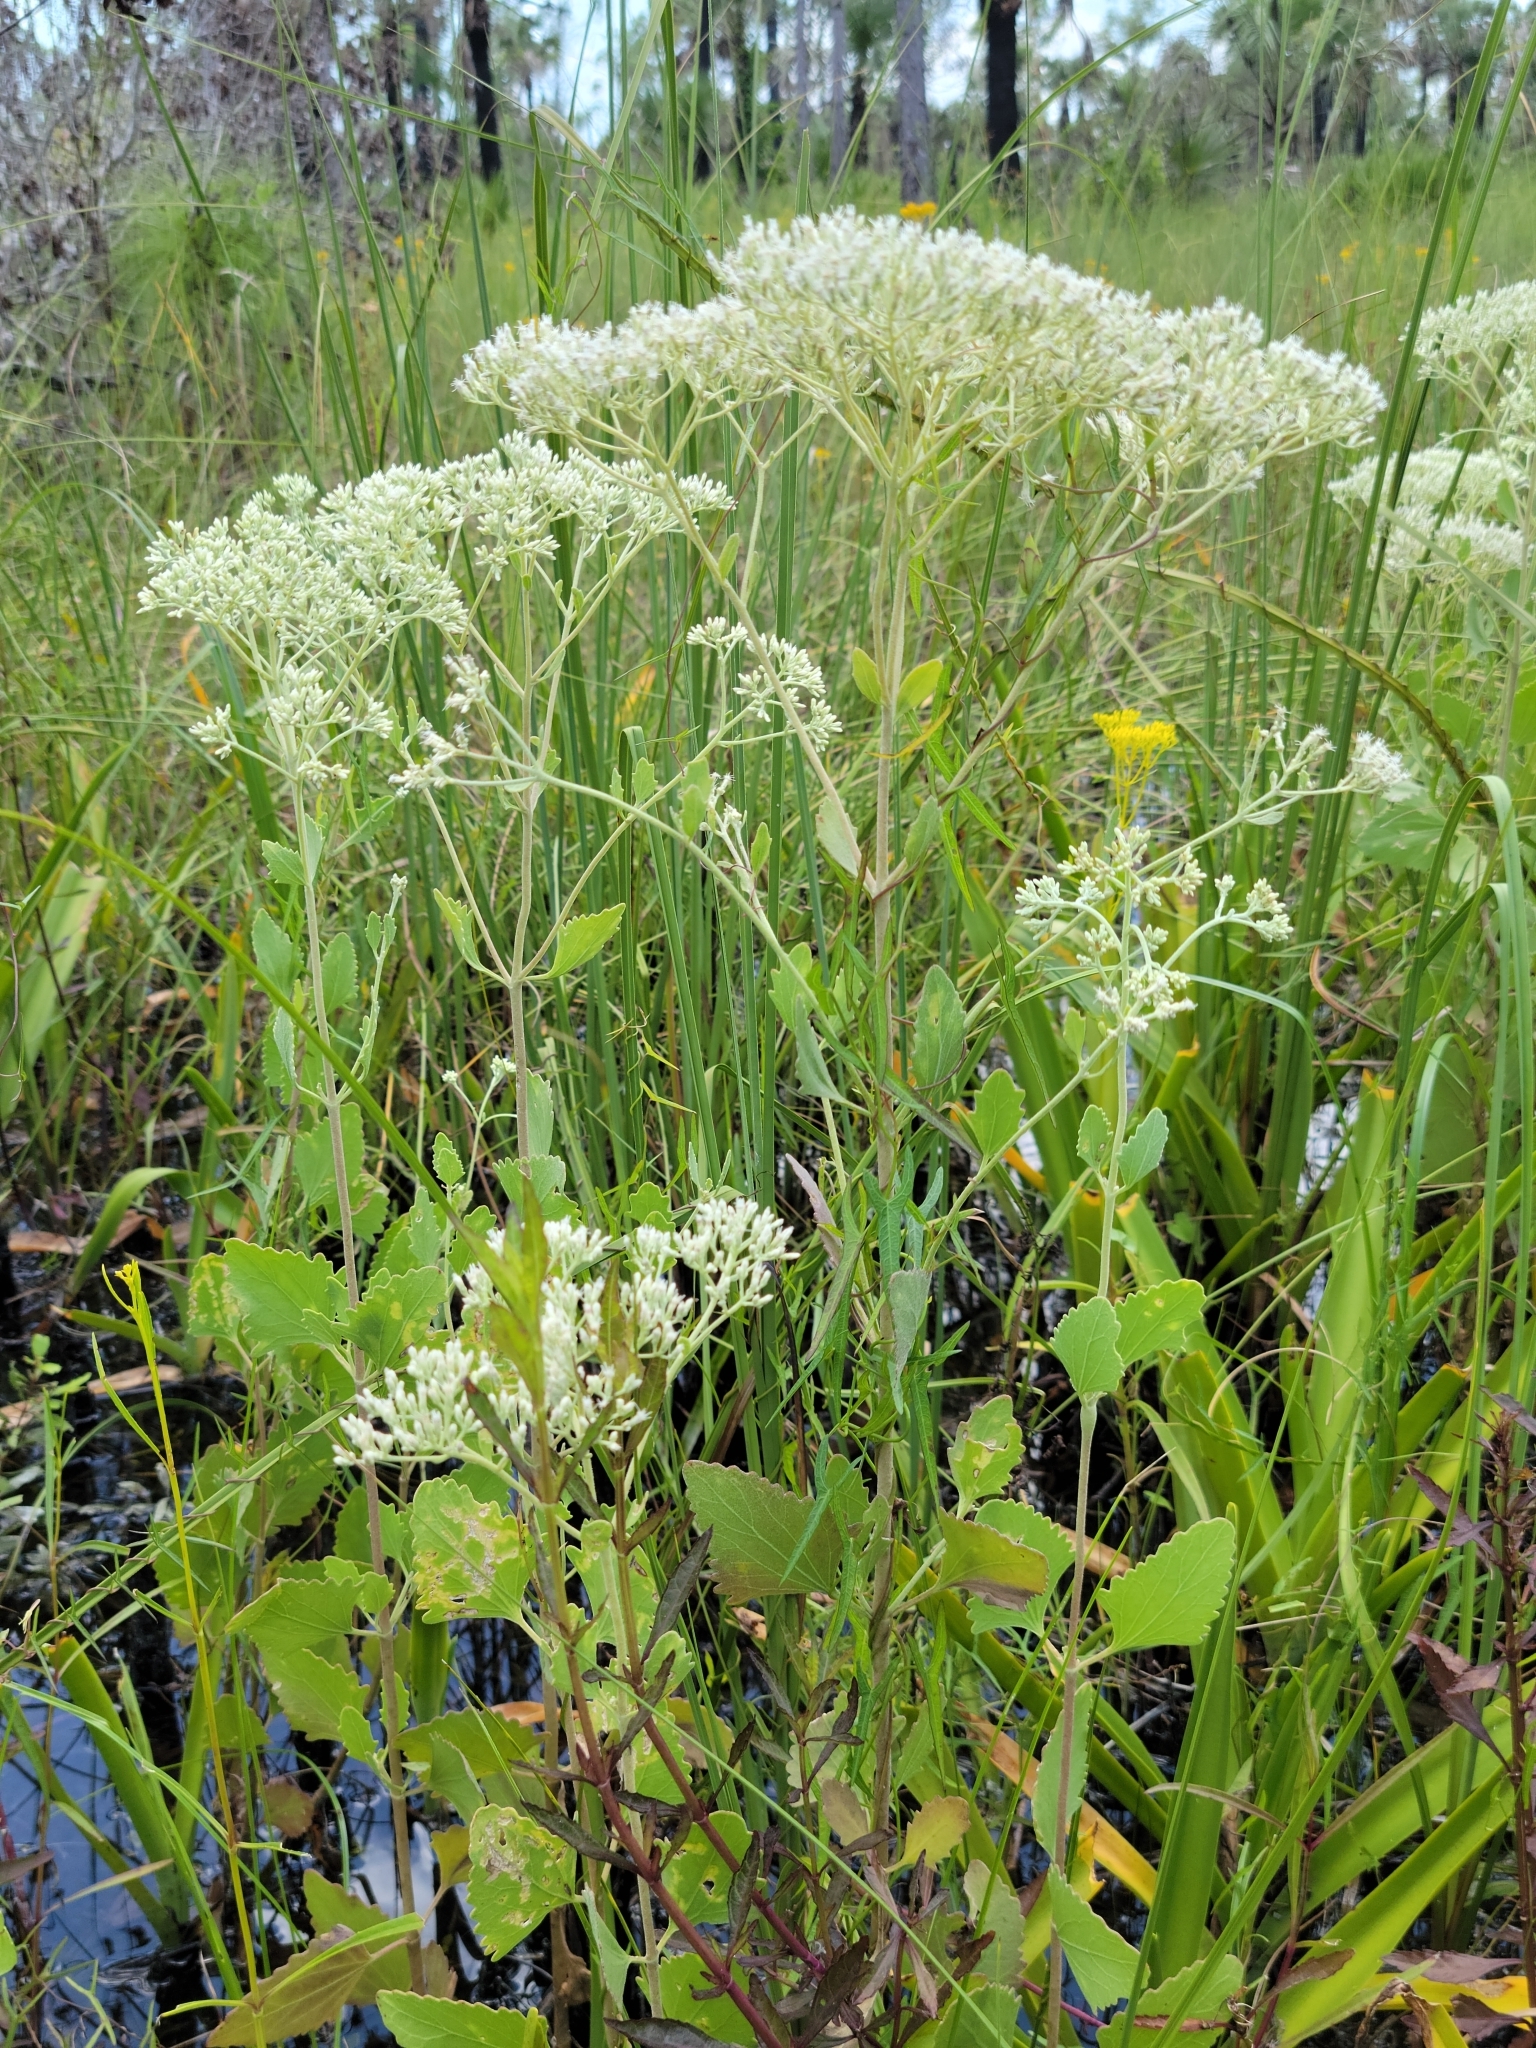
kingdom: Plantae
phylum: Tracheophyta
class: Magnoliopsida
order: Asterales
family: Asteraceae
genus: Eupatorium
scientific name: Eupatorium mikanioides
